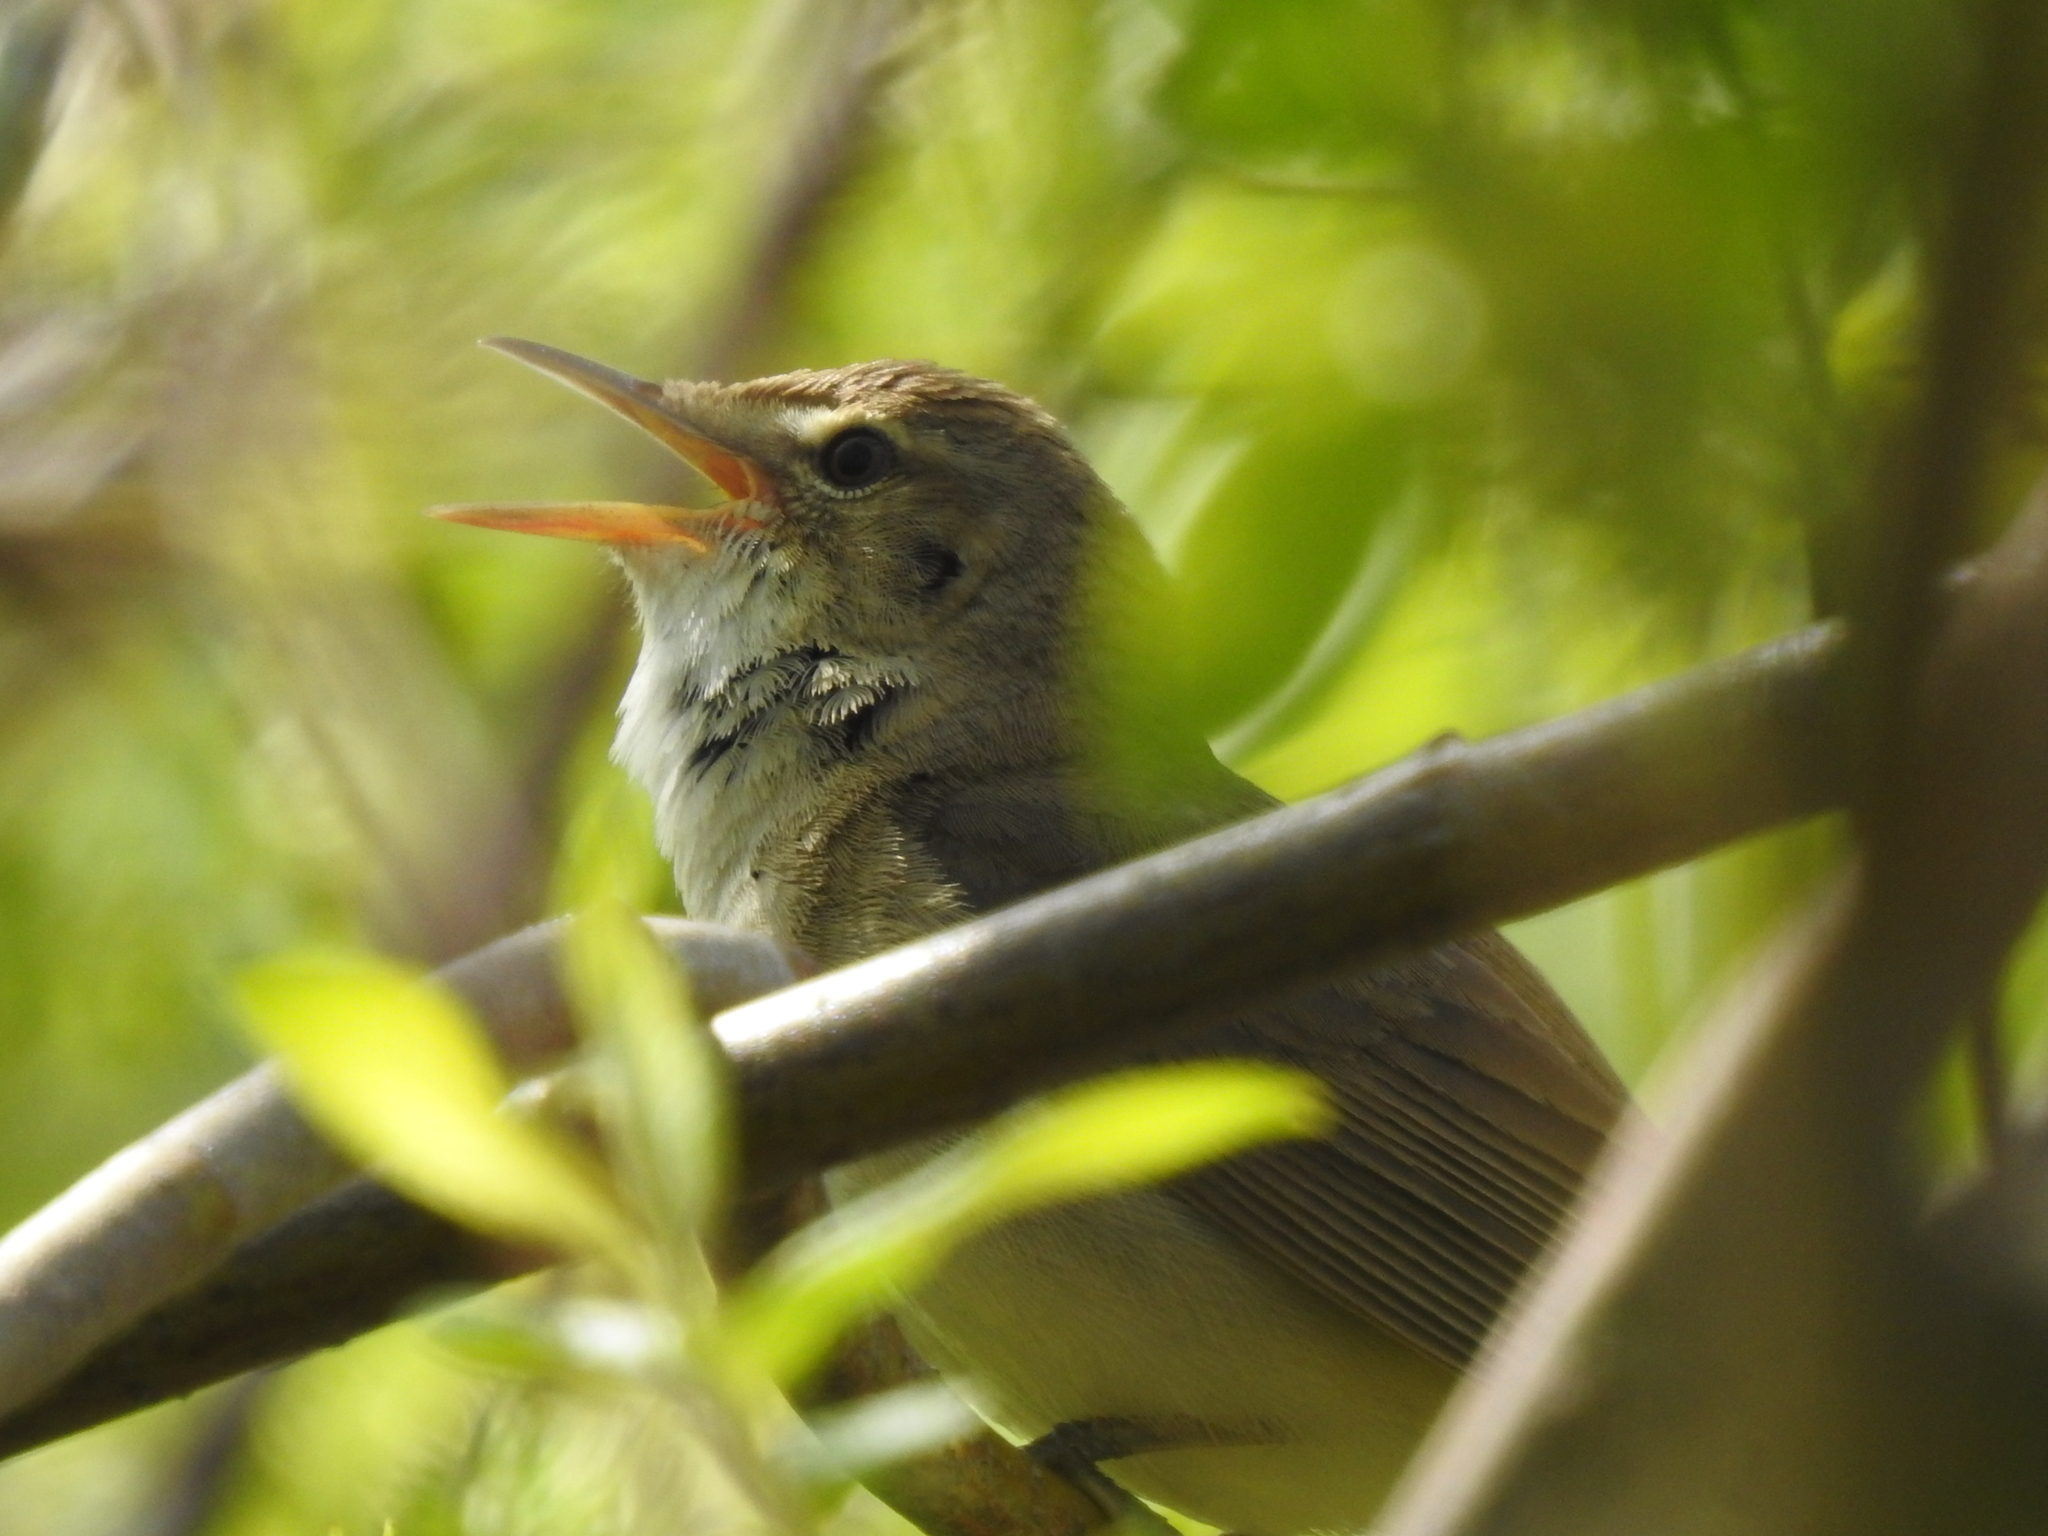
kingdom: Animalia
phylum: Chordata
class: Aves
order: Passeriformes
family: Acrocephalidae
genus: Acrocephalus
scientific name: Acrocephalus dumetorum
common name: Blyth's reed warbler
